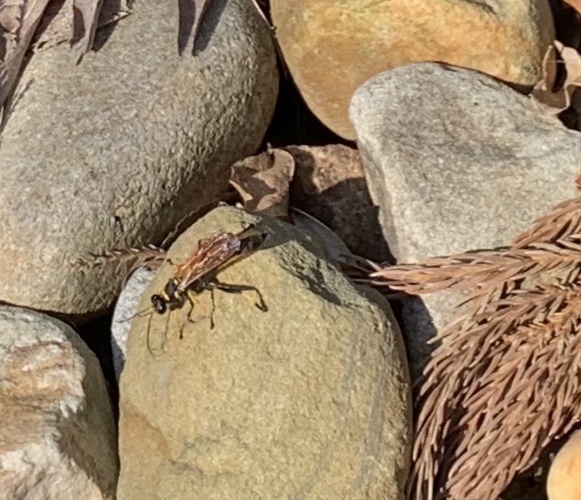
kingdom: Animalia
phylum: Arthropoda
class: Insecta
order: Hymenoptera
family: Sphecidae
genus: Sceliphron
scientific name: Sceliphron caementarium
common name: Mud dauber
